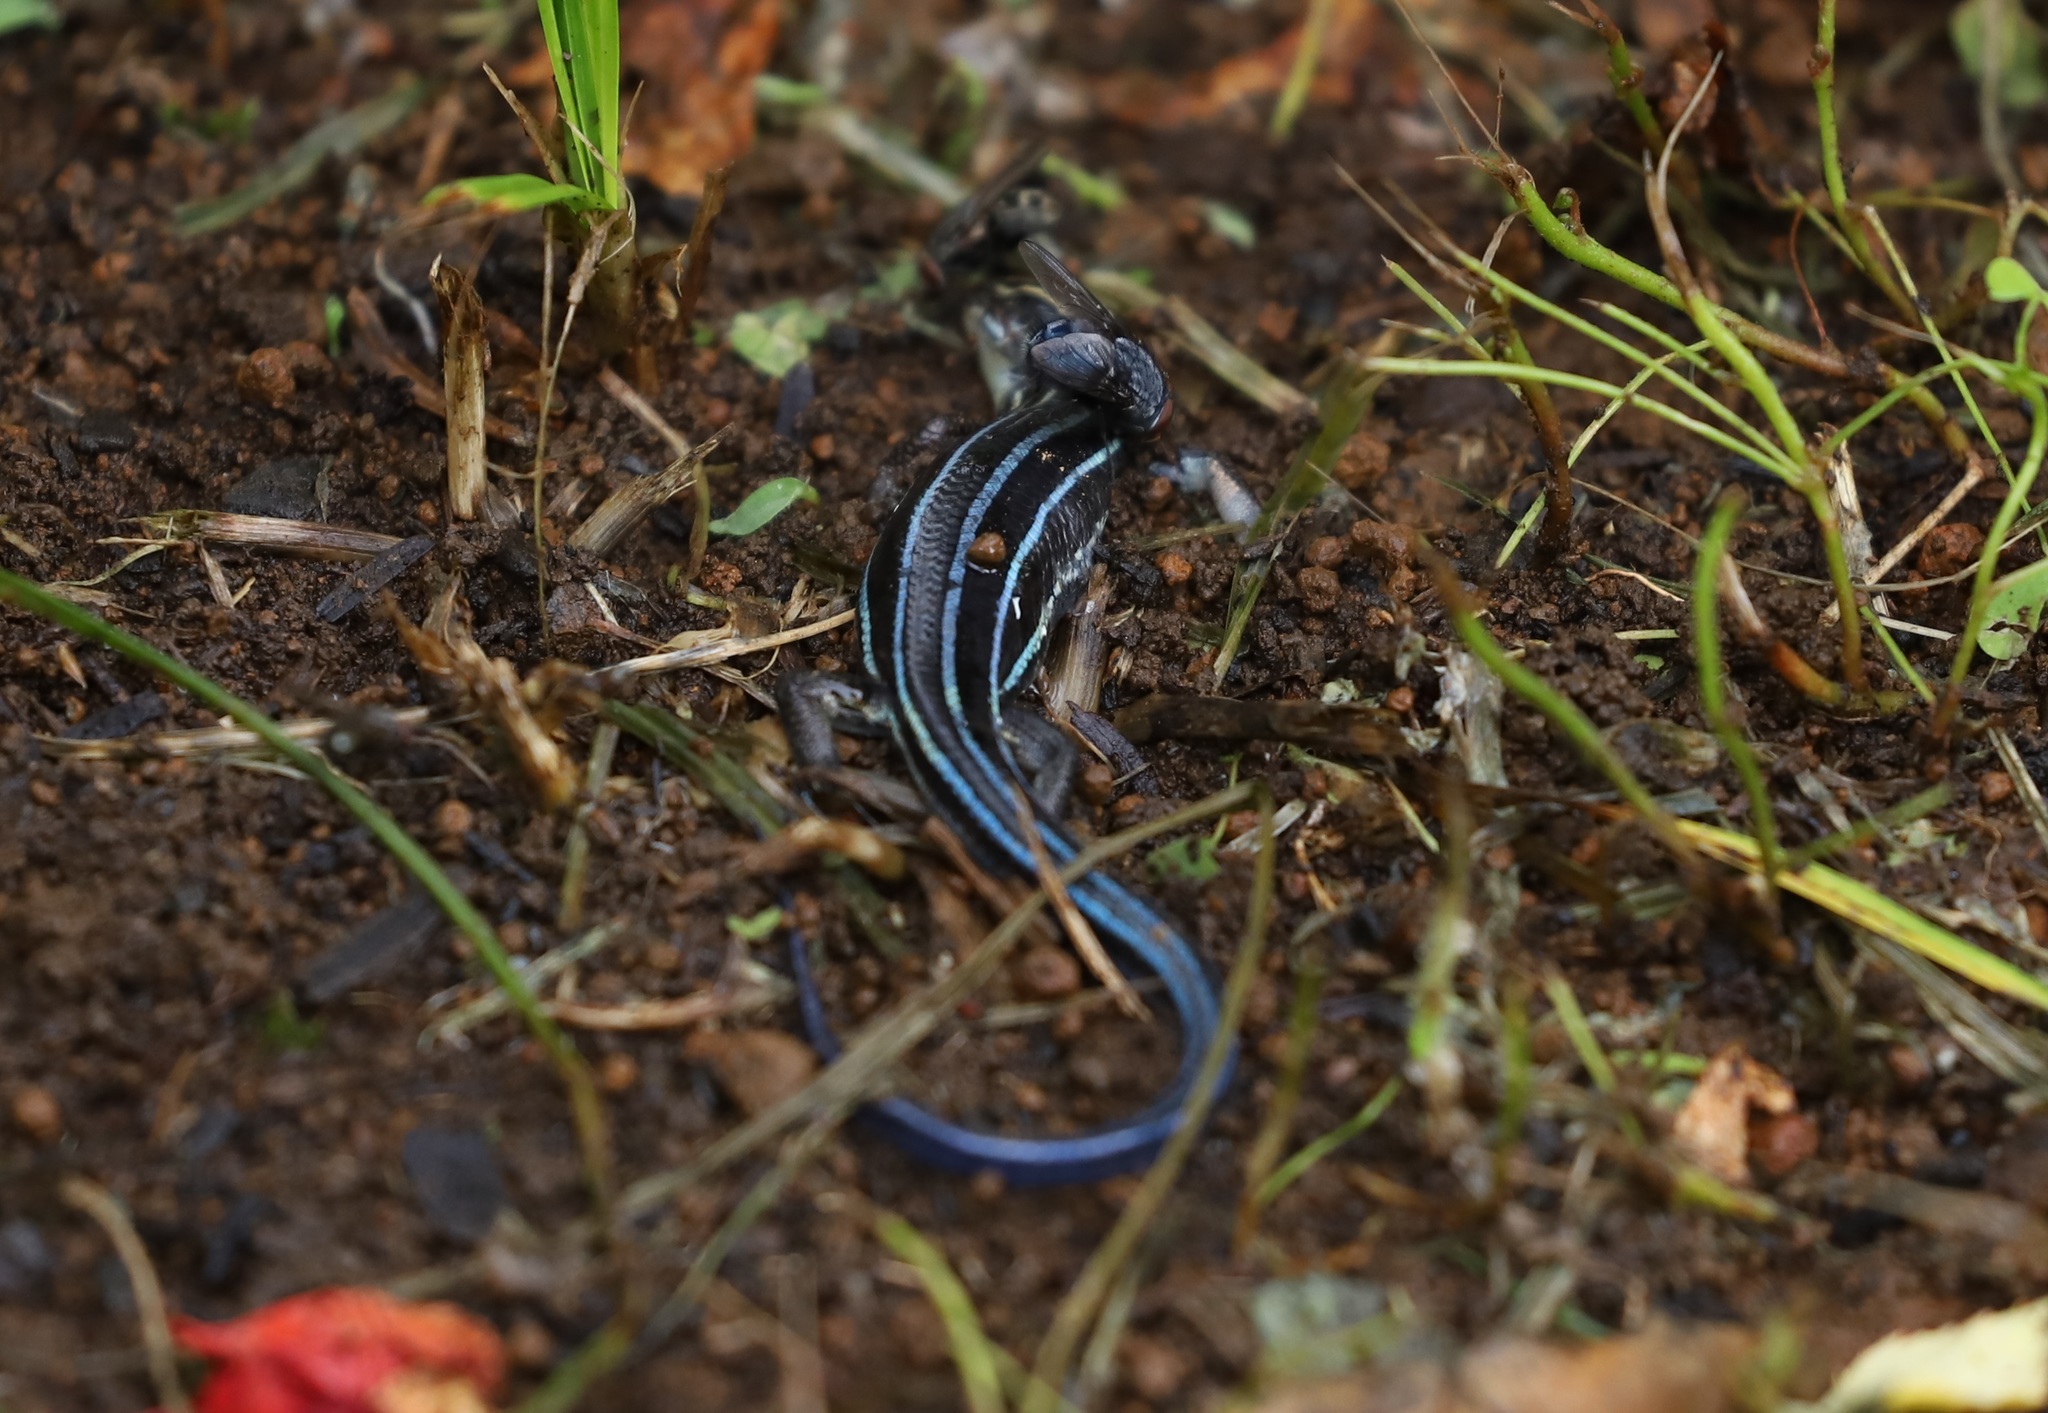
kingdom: Animalia
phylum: Chordata
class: Squamata
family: Scincidae
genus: Plestiodon
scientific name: Plestiodon finitimus
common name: Far eastern skink
